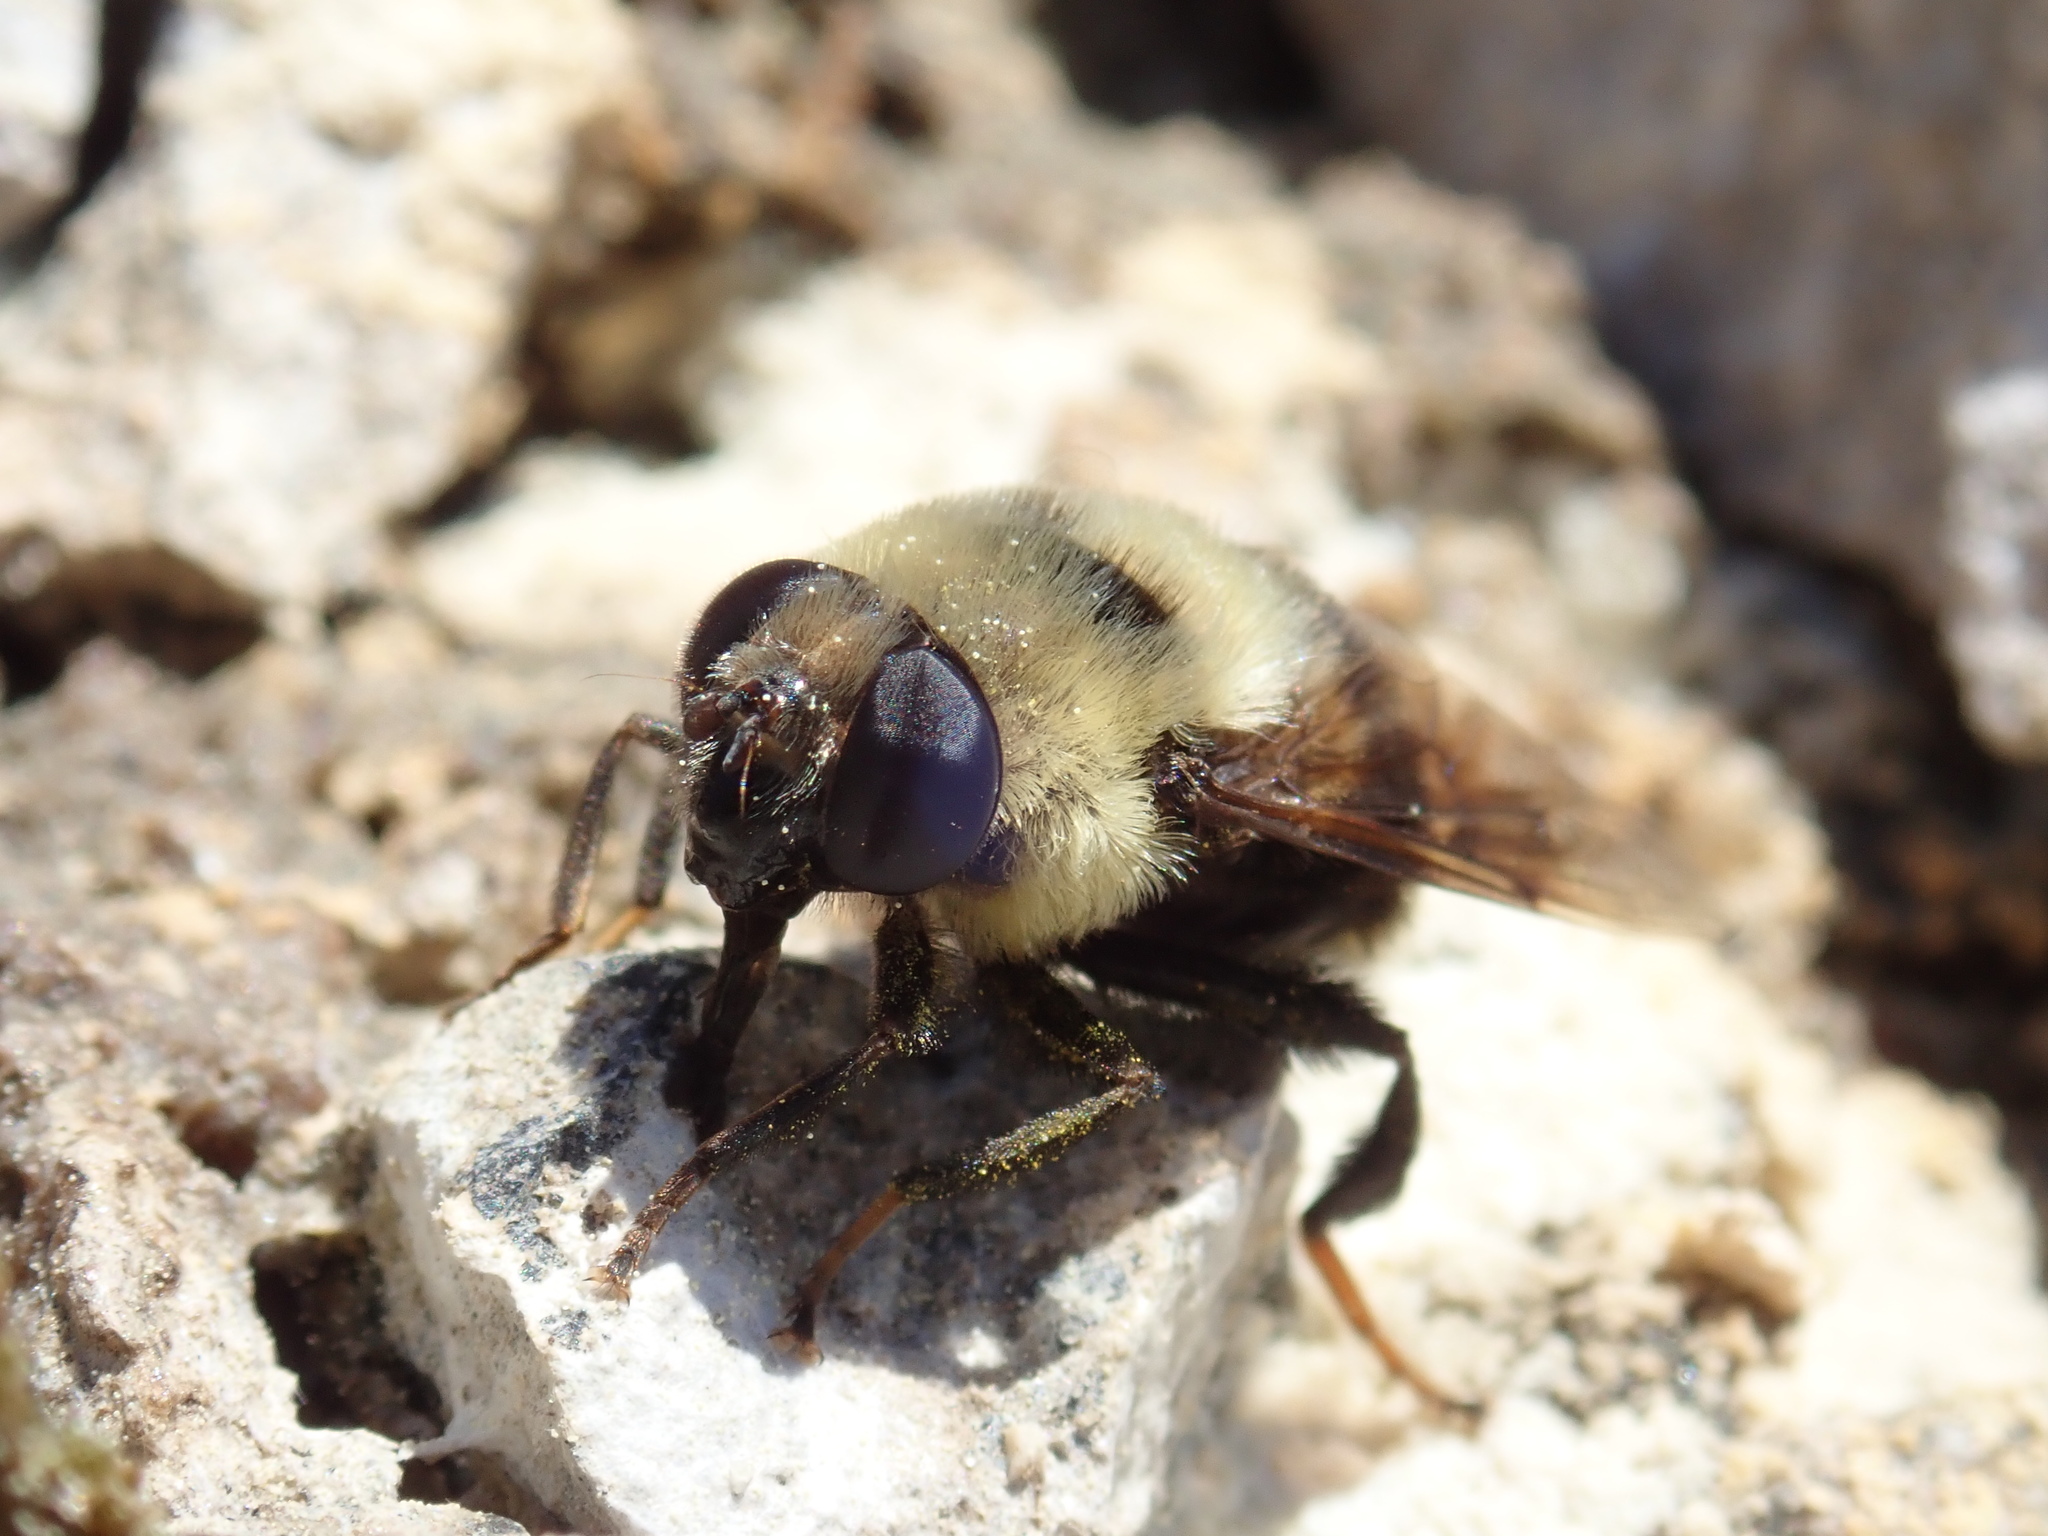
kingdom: Animalia
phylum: Arthropoda
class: Insecta
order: Diptera
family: Syrphidae
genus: Eristalis
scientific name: Eristalis flavipes
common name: Orange-legged drone fly
